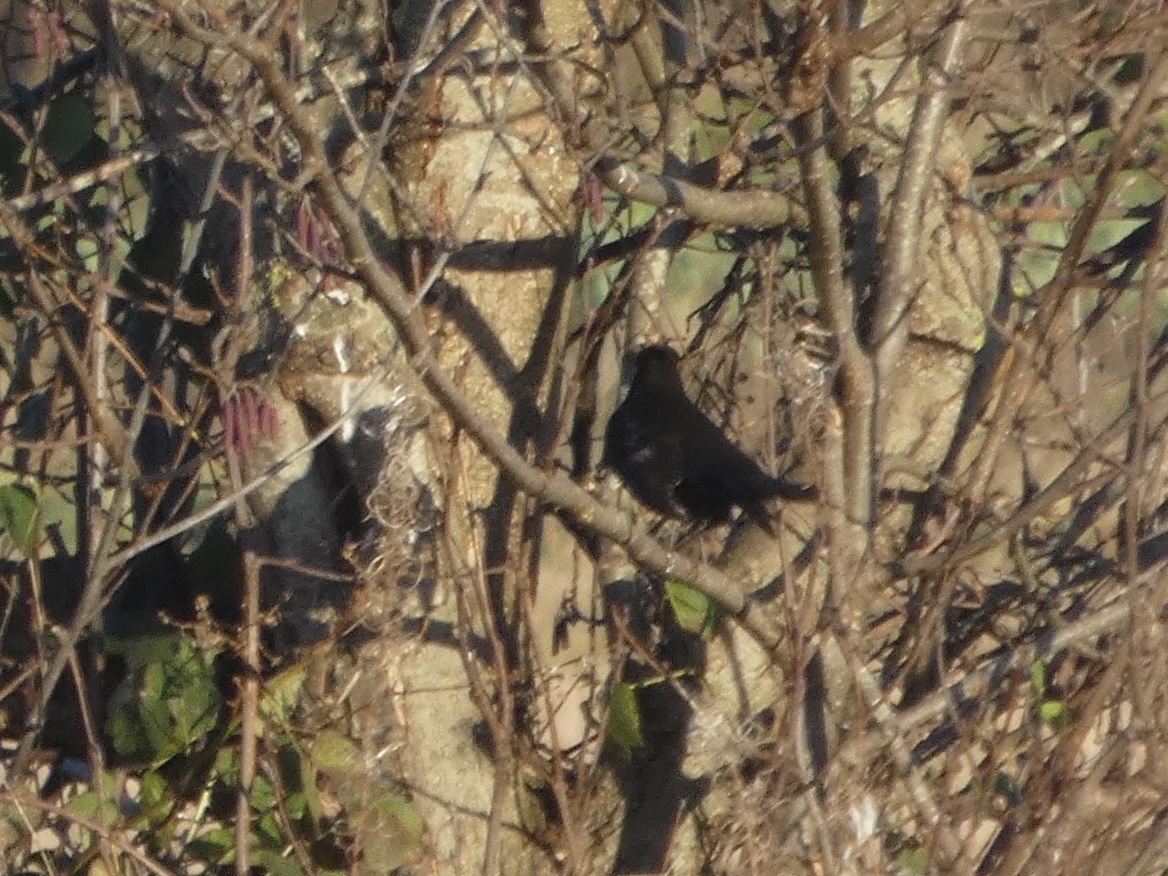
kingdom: Animalia
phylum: Chordata
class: Aves
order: Passeriformes
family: Turdidae
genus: Turdus
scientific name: Turdus merula
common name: Common blackbird
